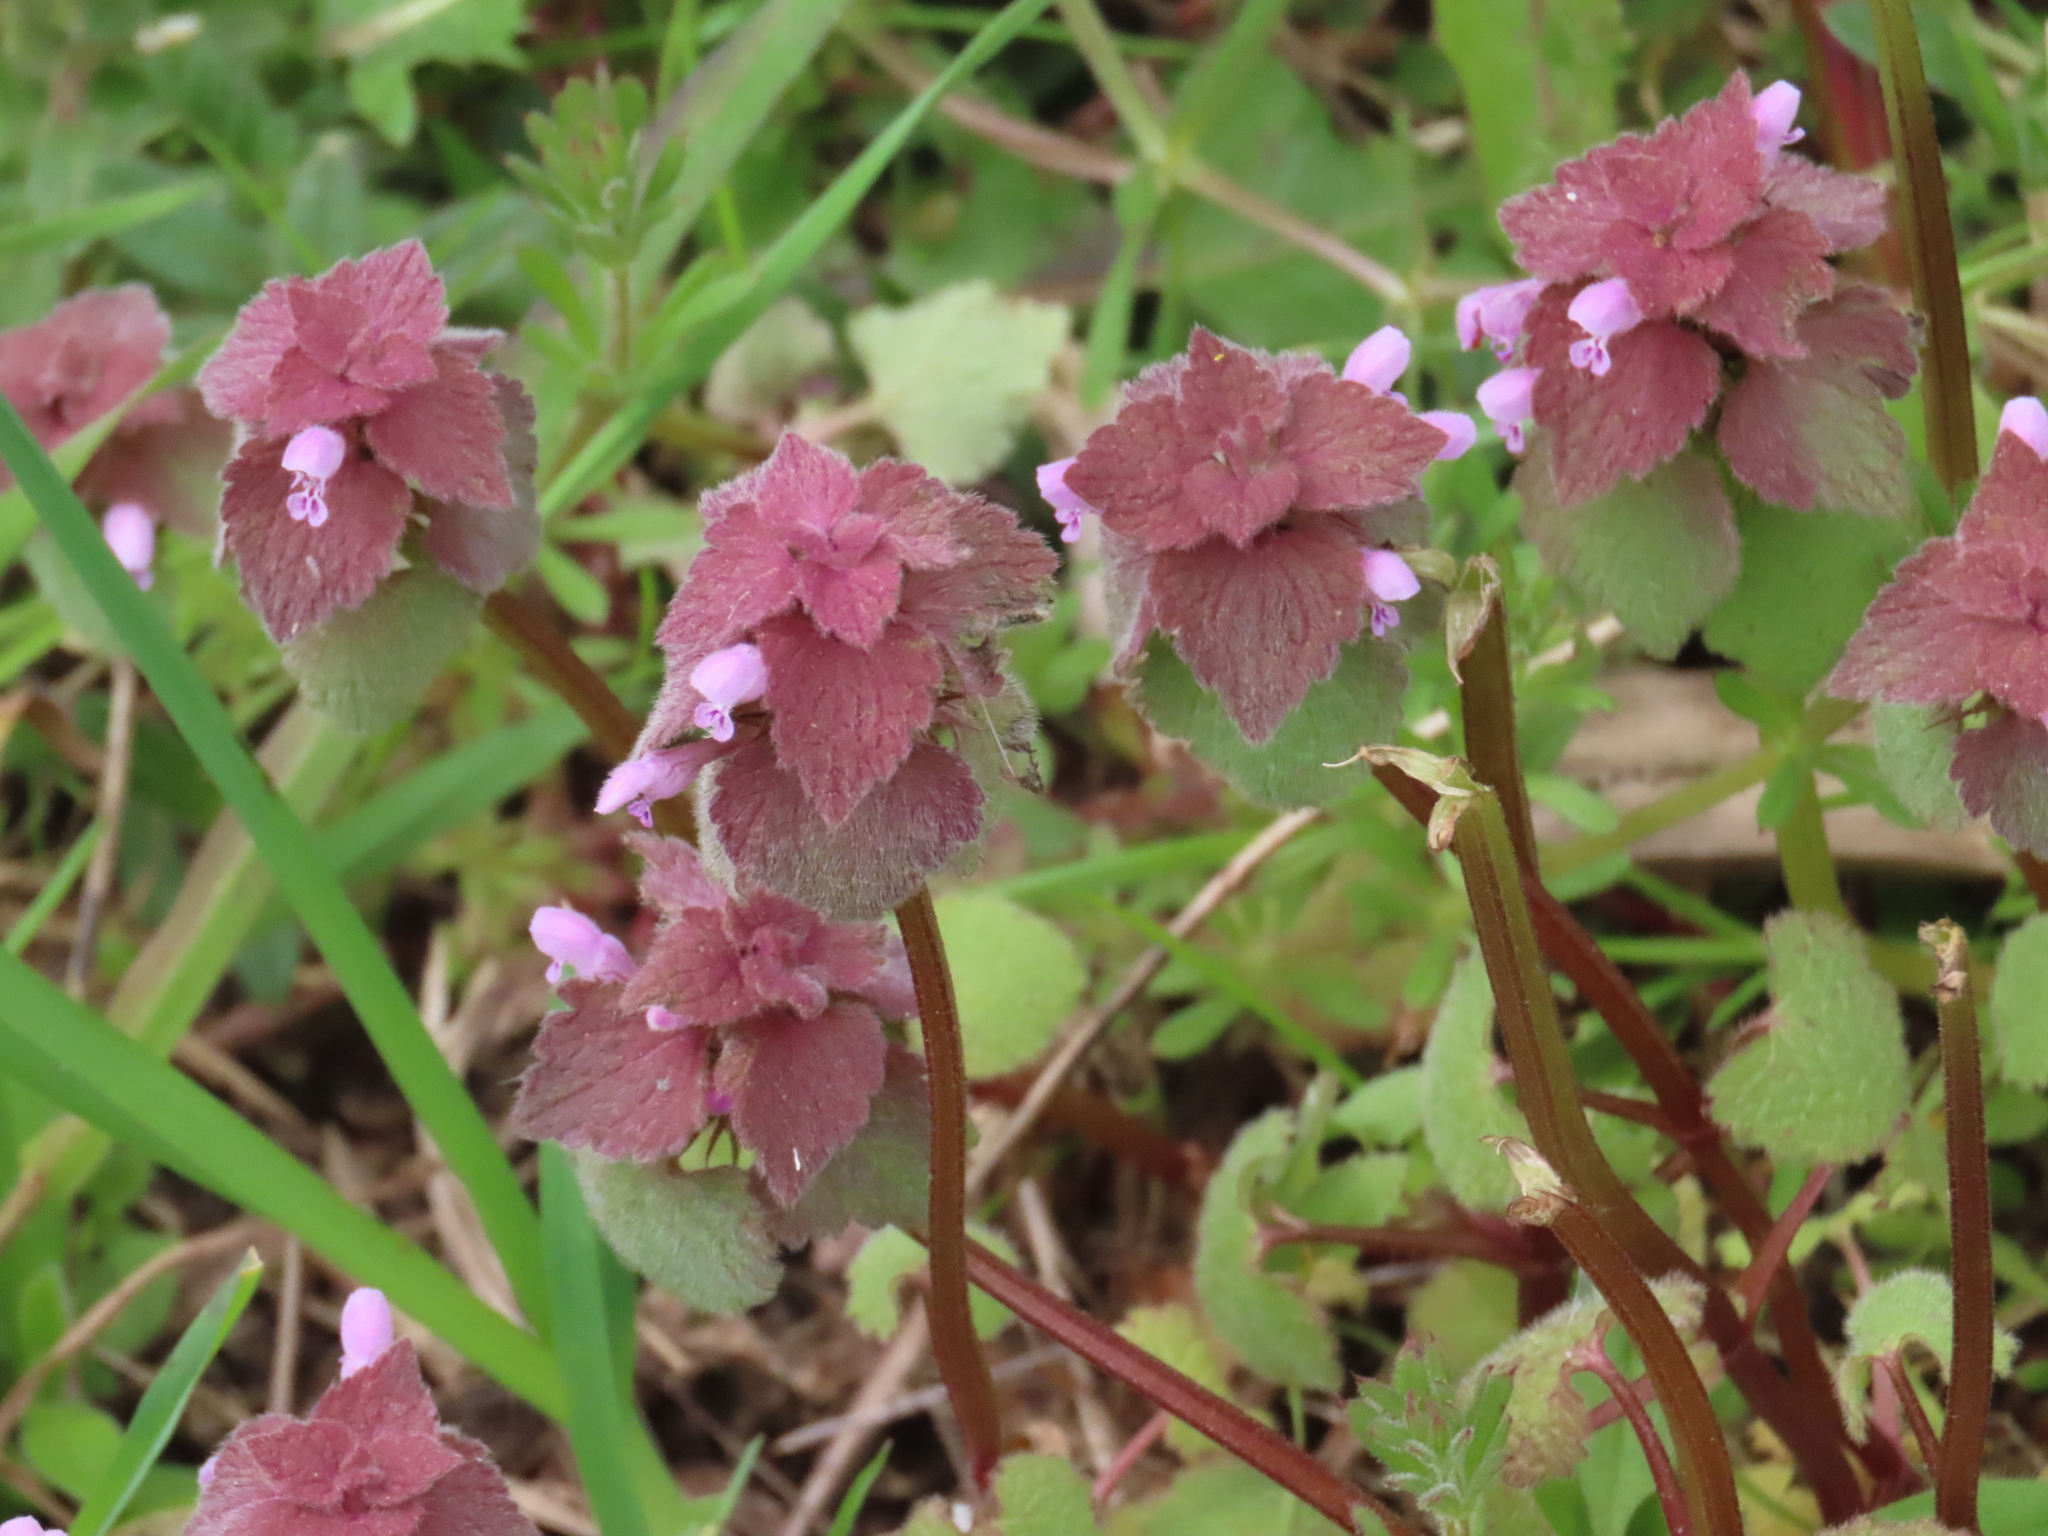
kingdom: Plantae
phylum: Tracheophyta
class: Magnoliopsida
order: Lamiales
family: Lamiaceae
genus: Lamium
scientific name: Lamium purpureum
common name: Red dead-nettle
